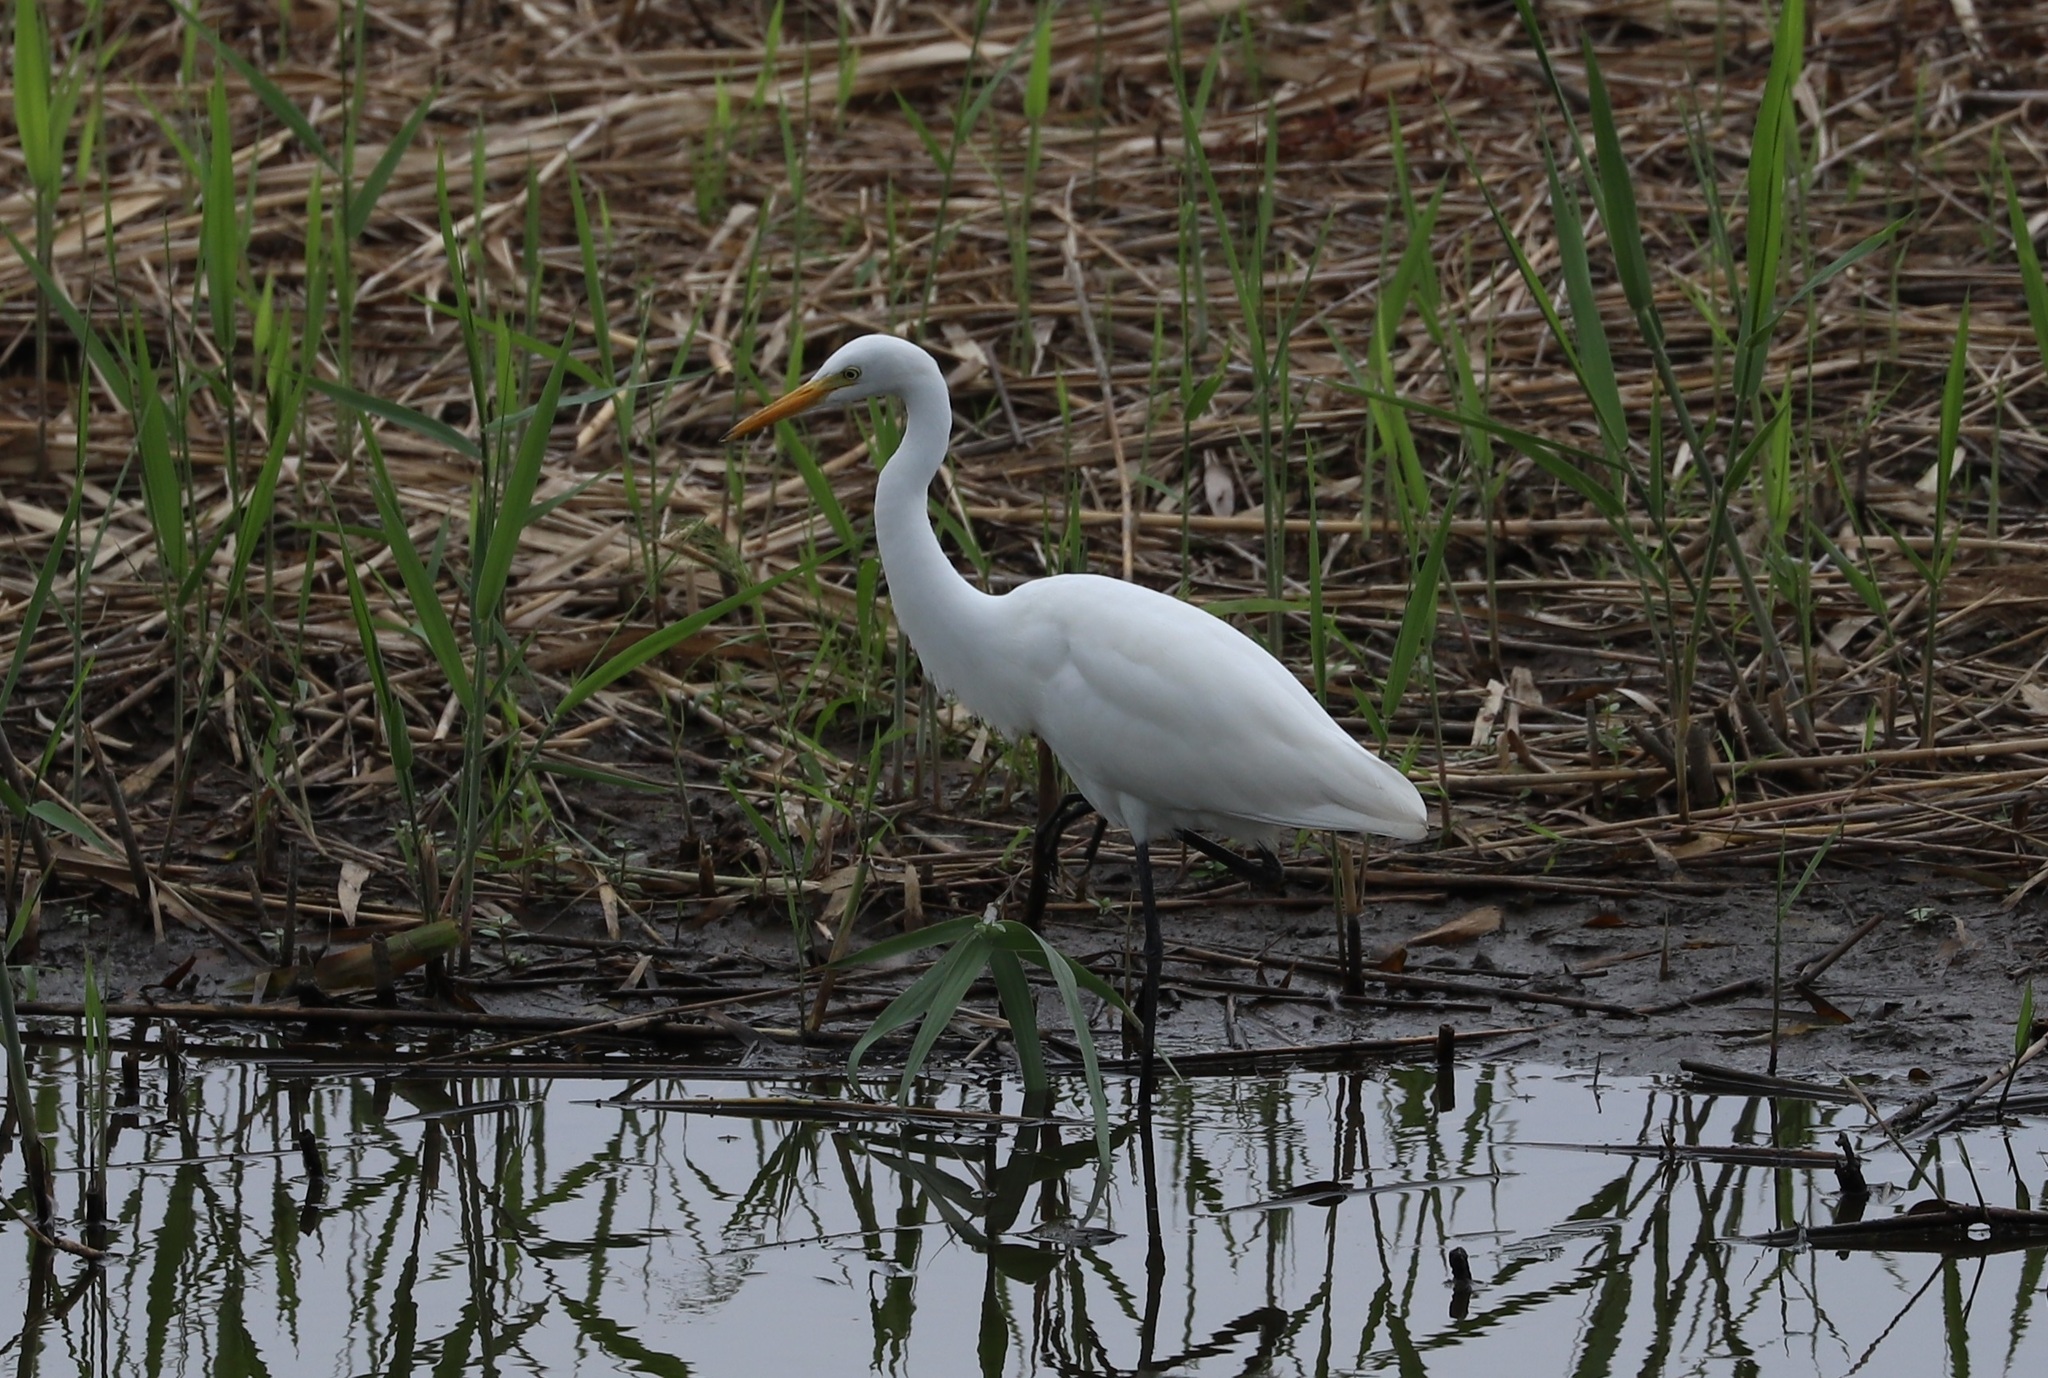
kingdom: Animalia
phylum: Chordata
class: Aves
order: Pelecaniformes
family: Ardeidae
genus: Egretta
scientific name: Egretta intermedia
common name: Intermediate egret
